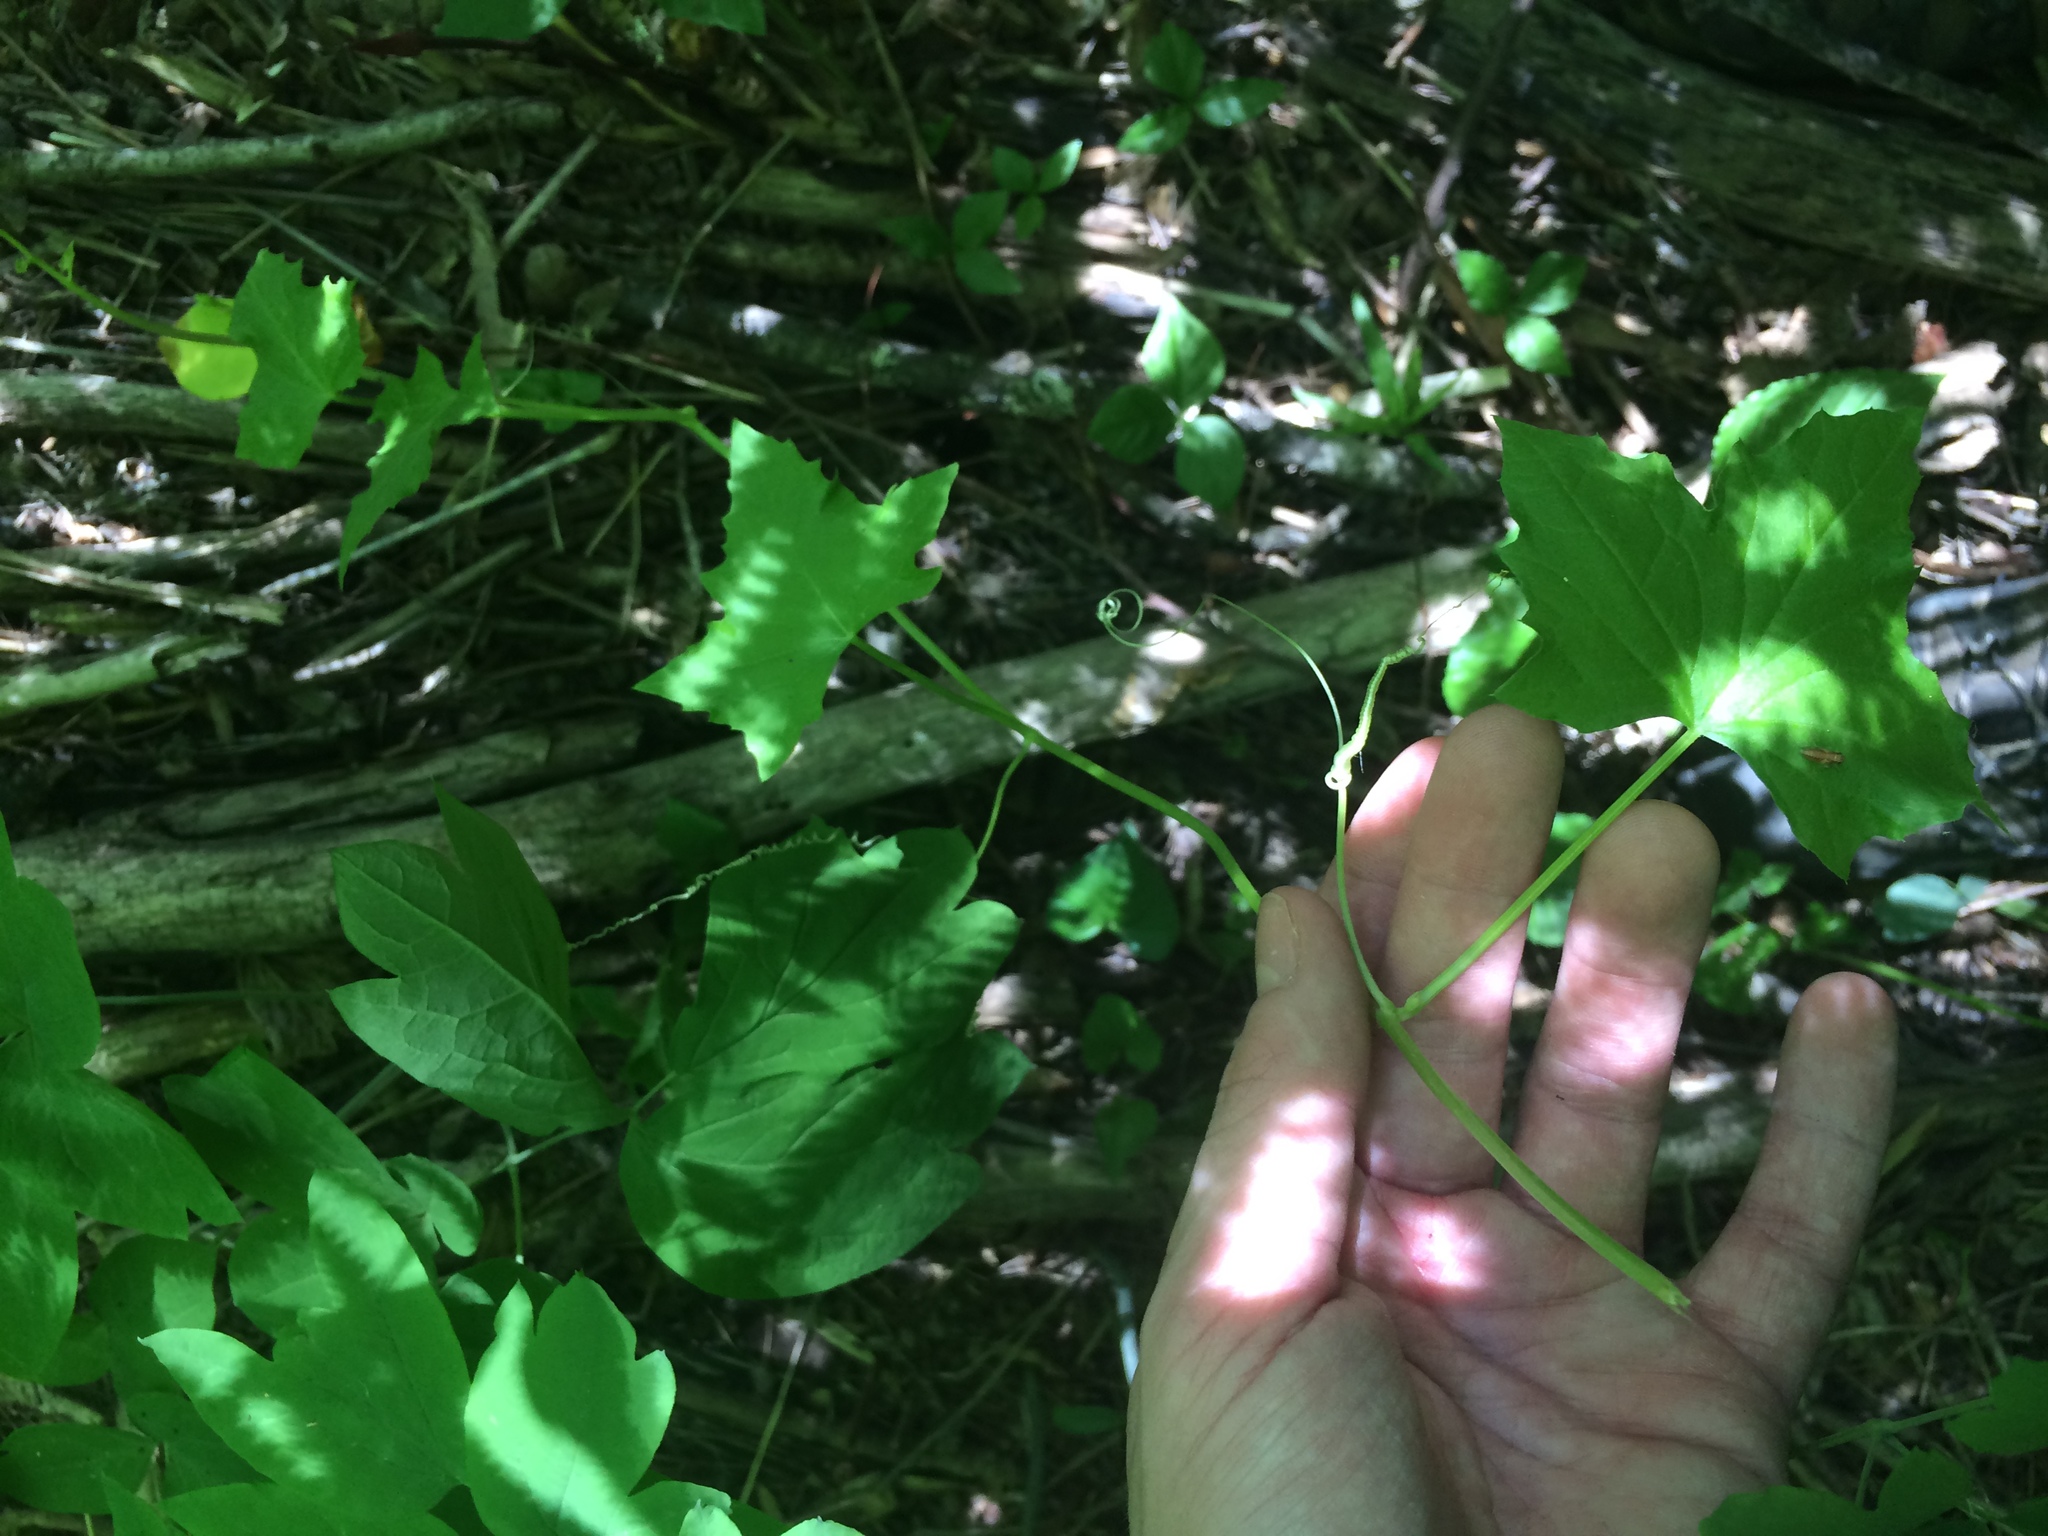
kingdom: Plantae
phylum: Tracheophyta
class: Magnoliopsida
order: Cucurbitales
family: Cucurbitaceae
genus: Echinocystis
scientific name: Echinocystis lobata
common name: Wild cucumber
